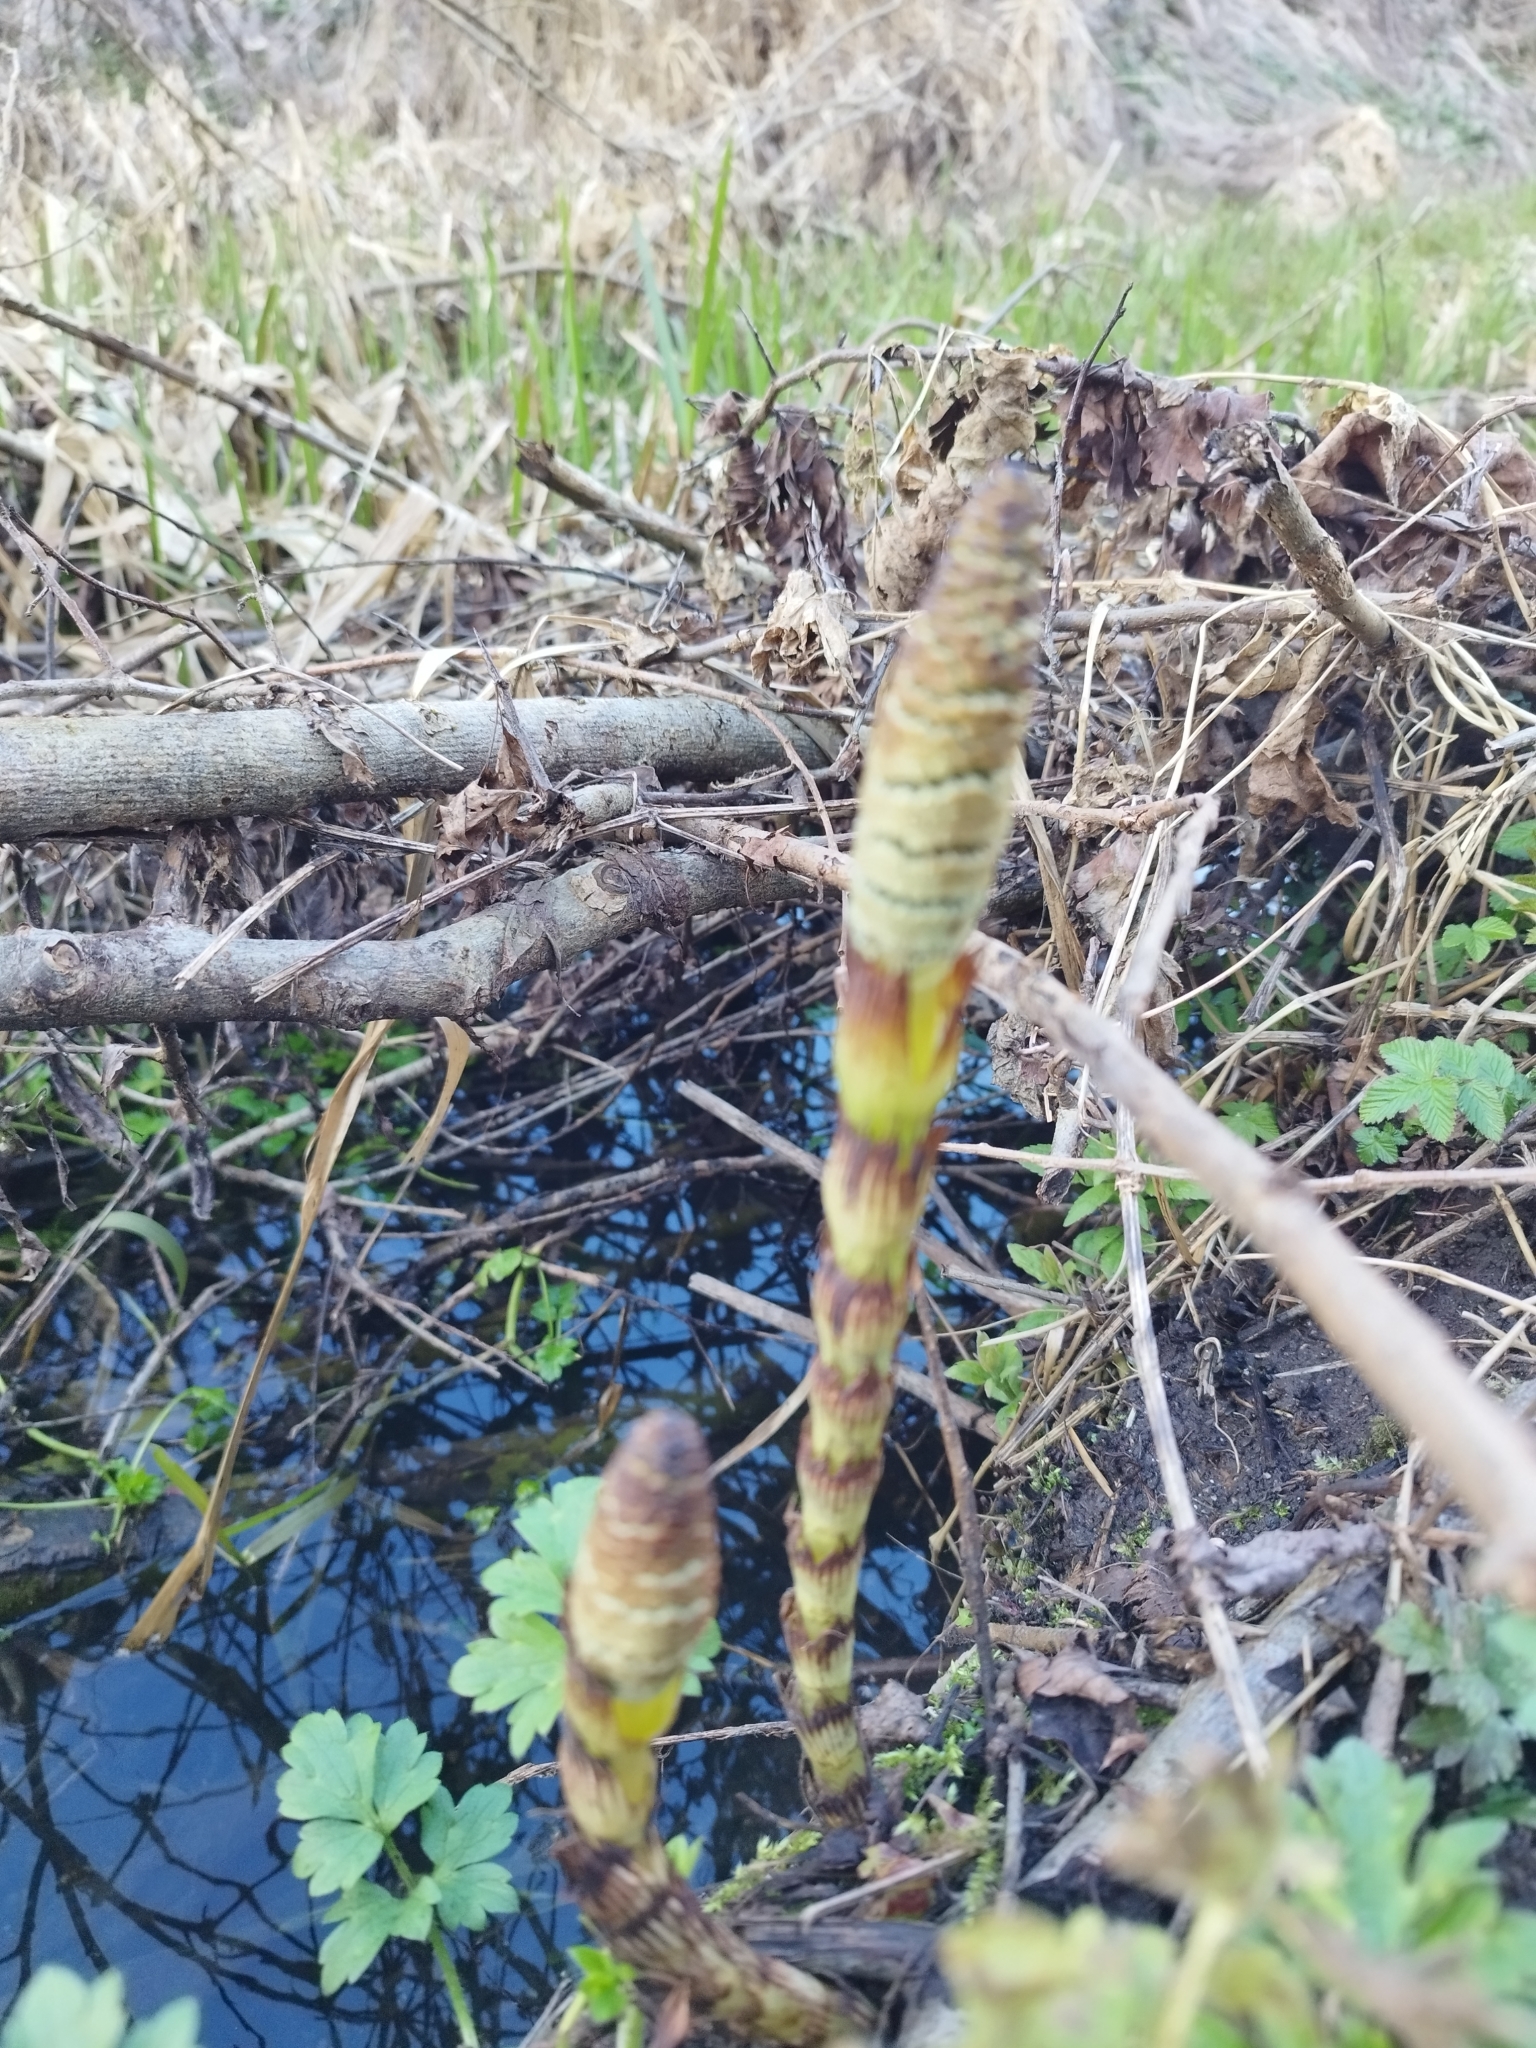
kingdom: Plantae
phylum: Tracheophyta
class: Polypodiopsida
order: Equisetales
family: Equisetaceae
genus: Equisetum
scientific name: Equisetum telmateia
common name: Great horsetail
